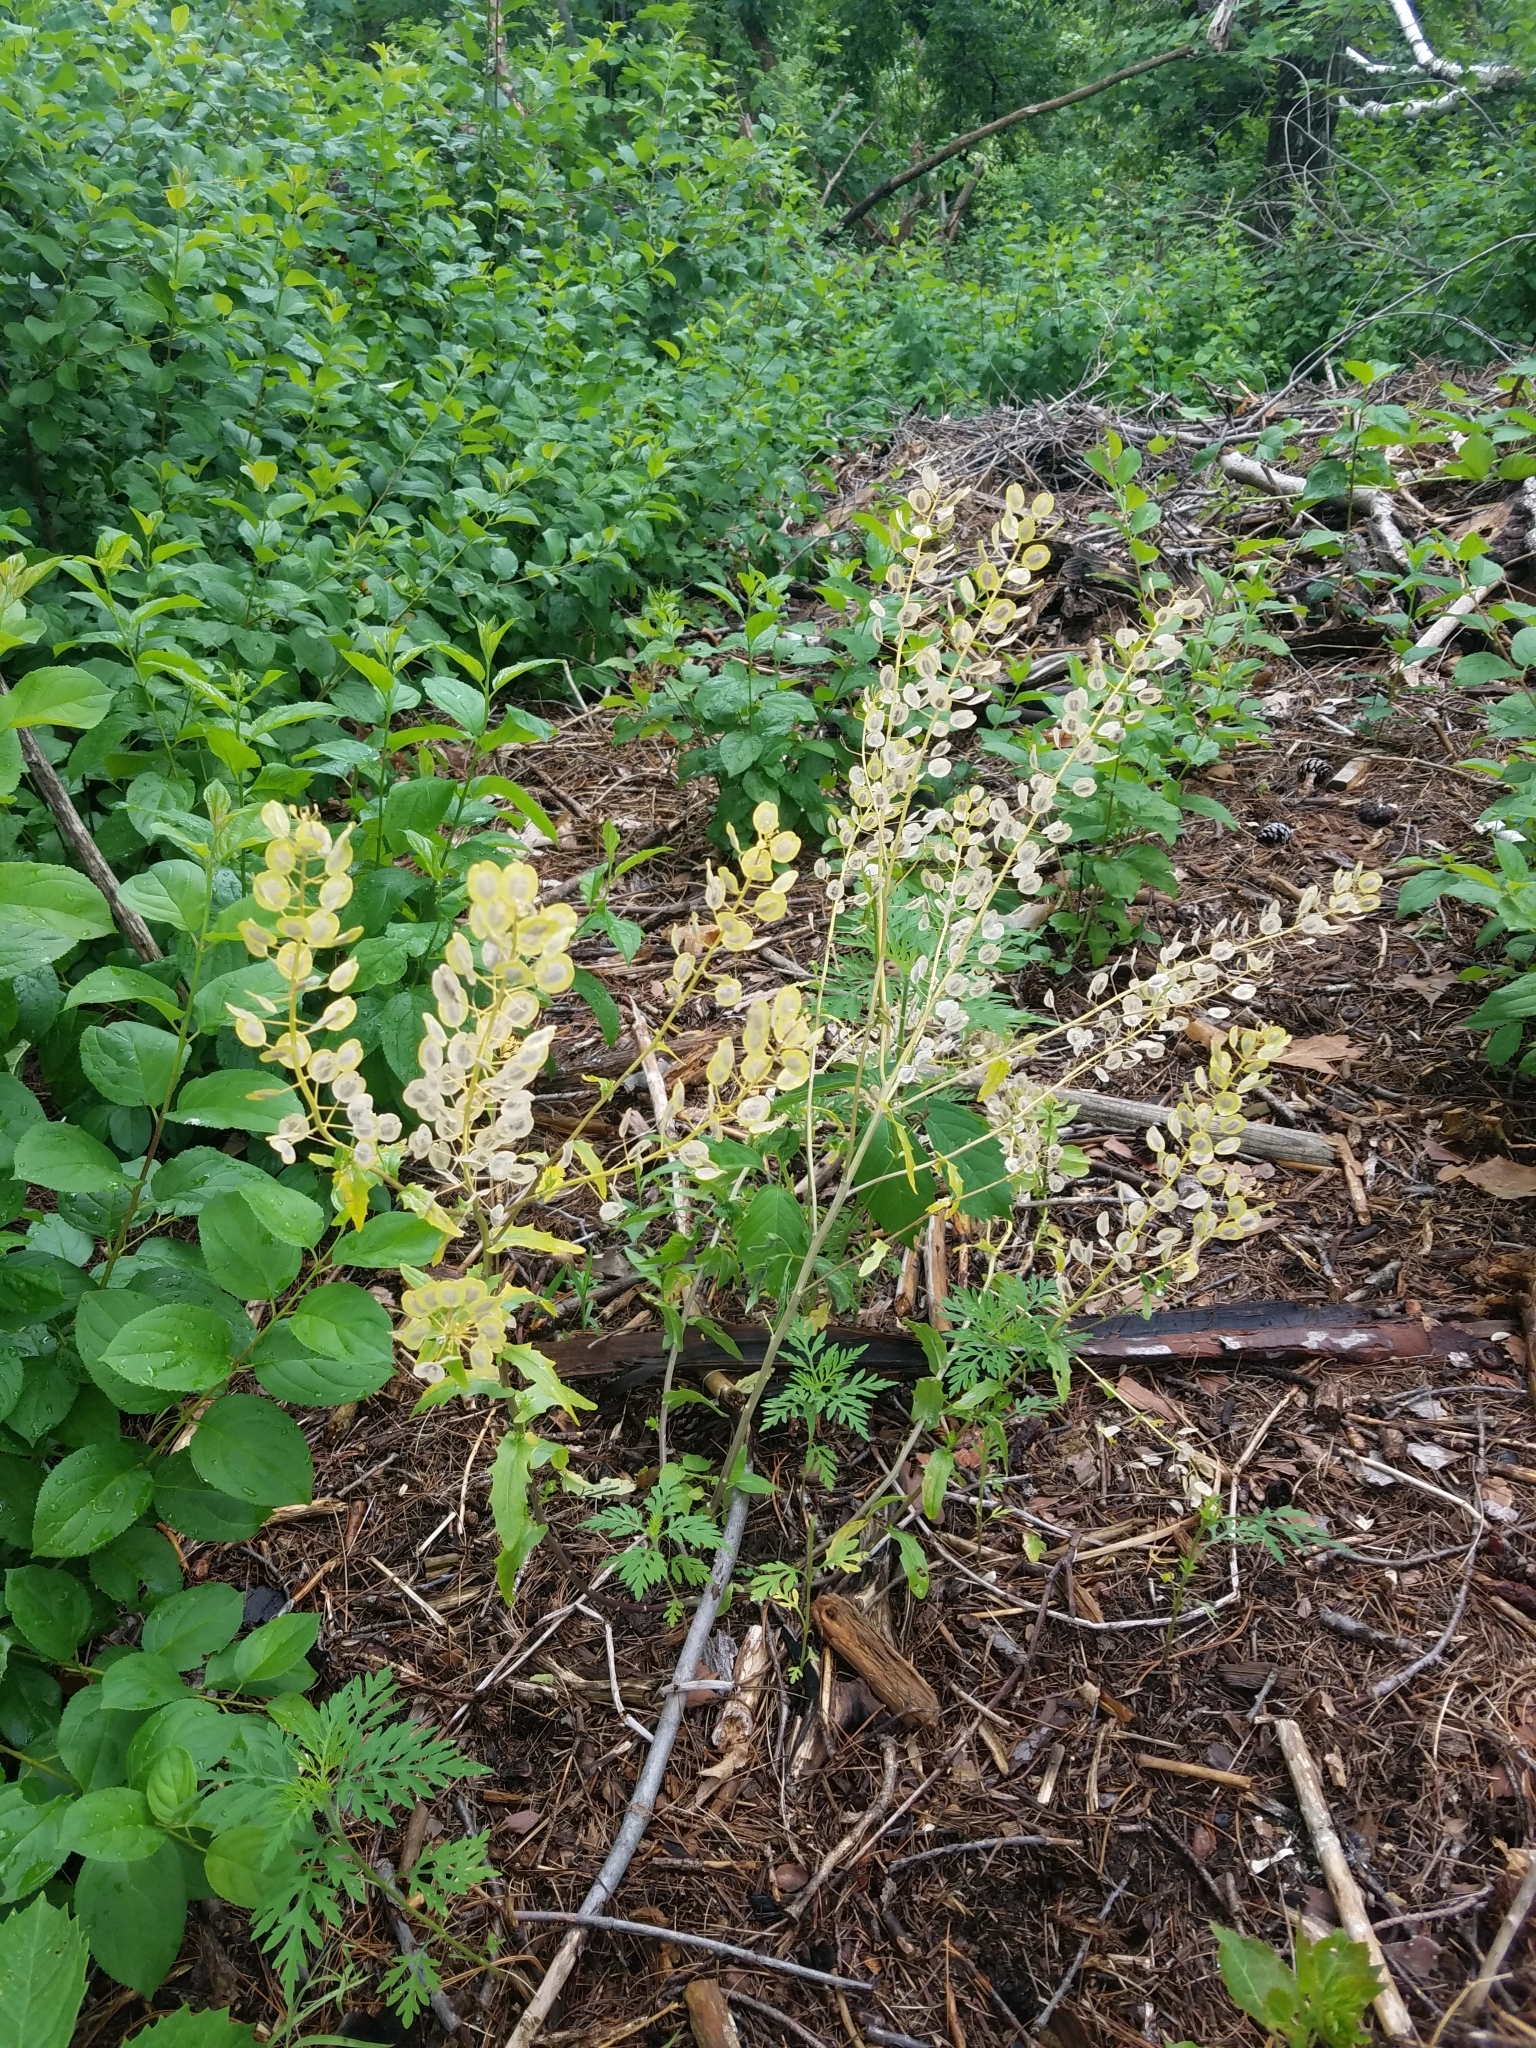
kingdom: Plantae
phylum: Tracheophyta
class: Magnoliopsida
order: Brassicales
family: Brassicaceae
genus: Thlaspi
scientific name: Thlaspi arvense
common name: Field pennycress
